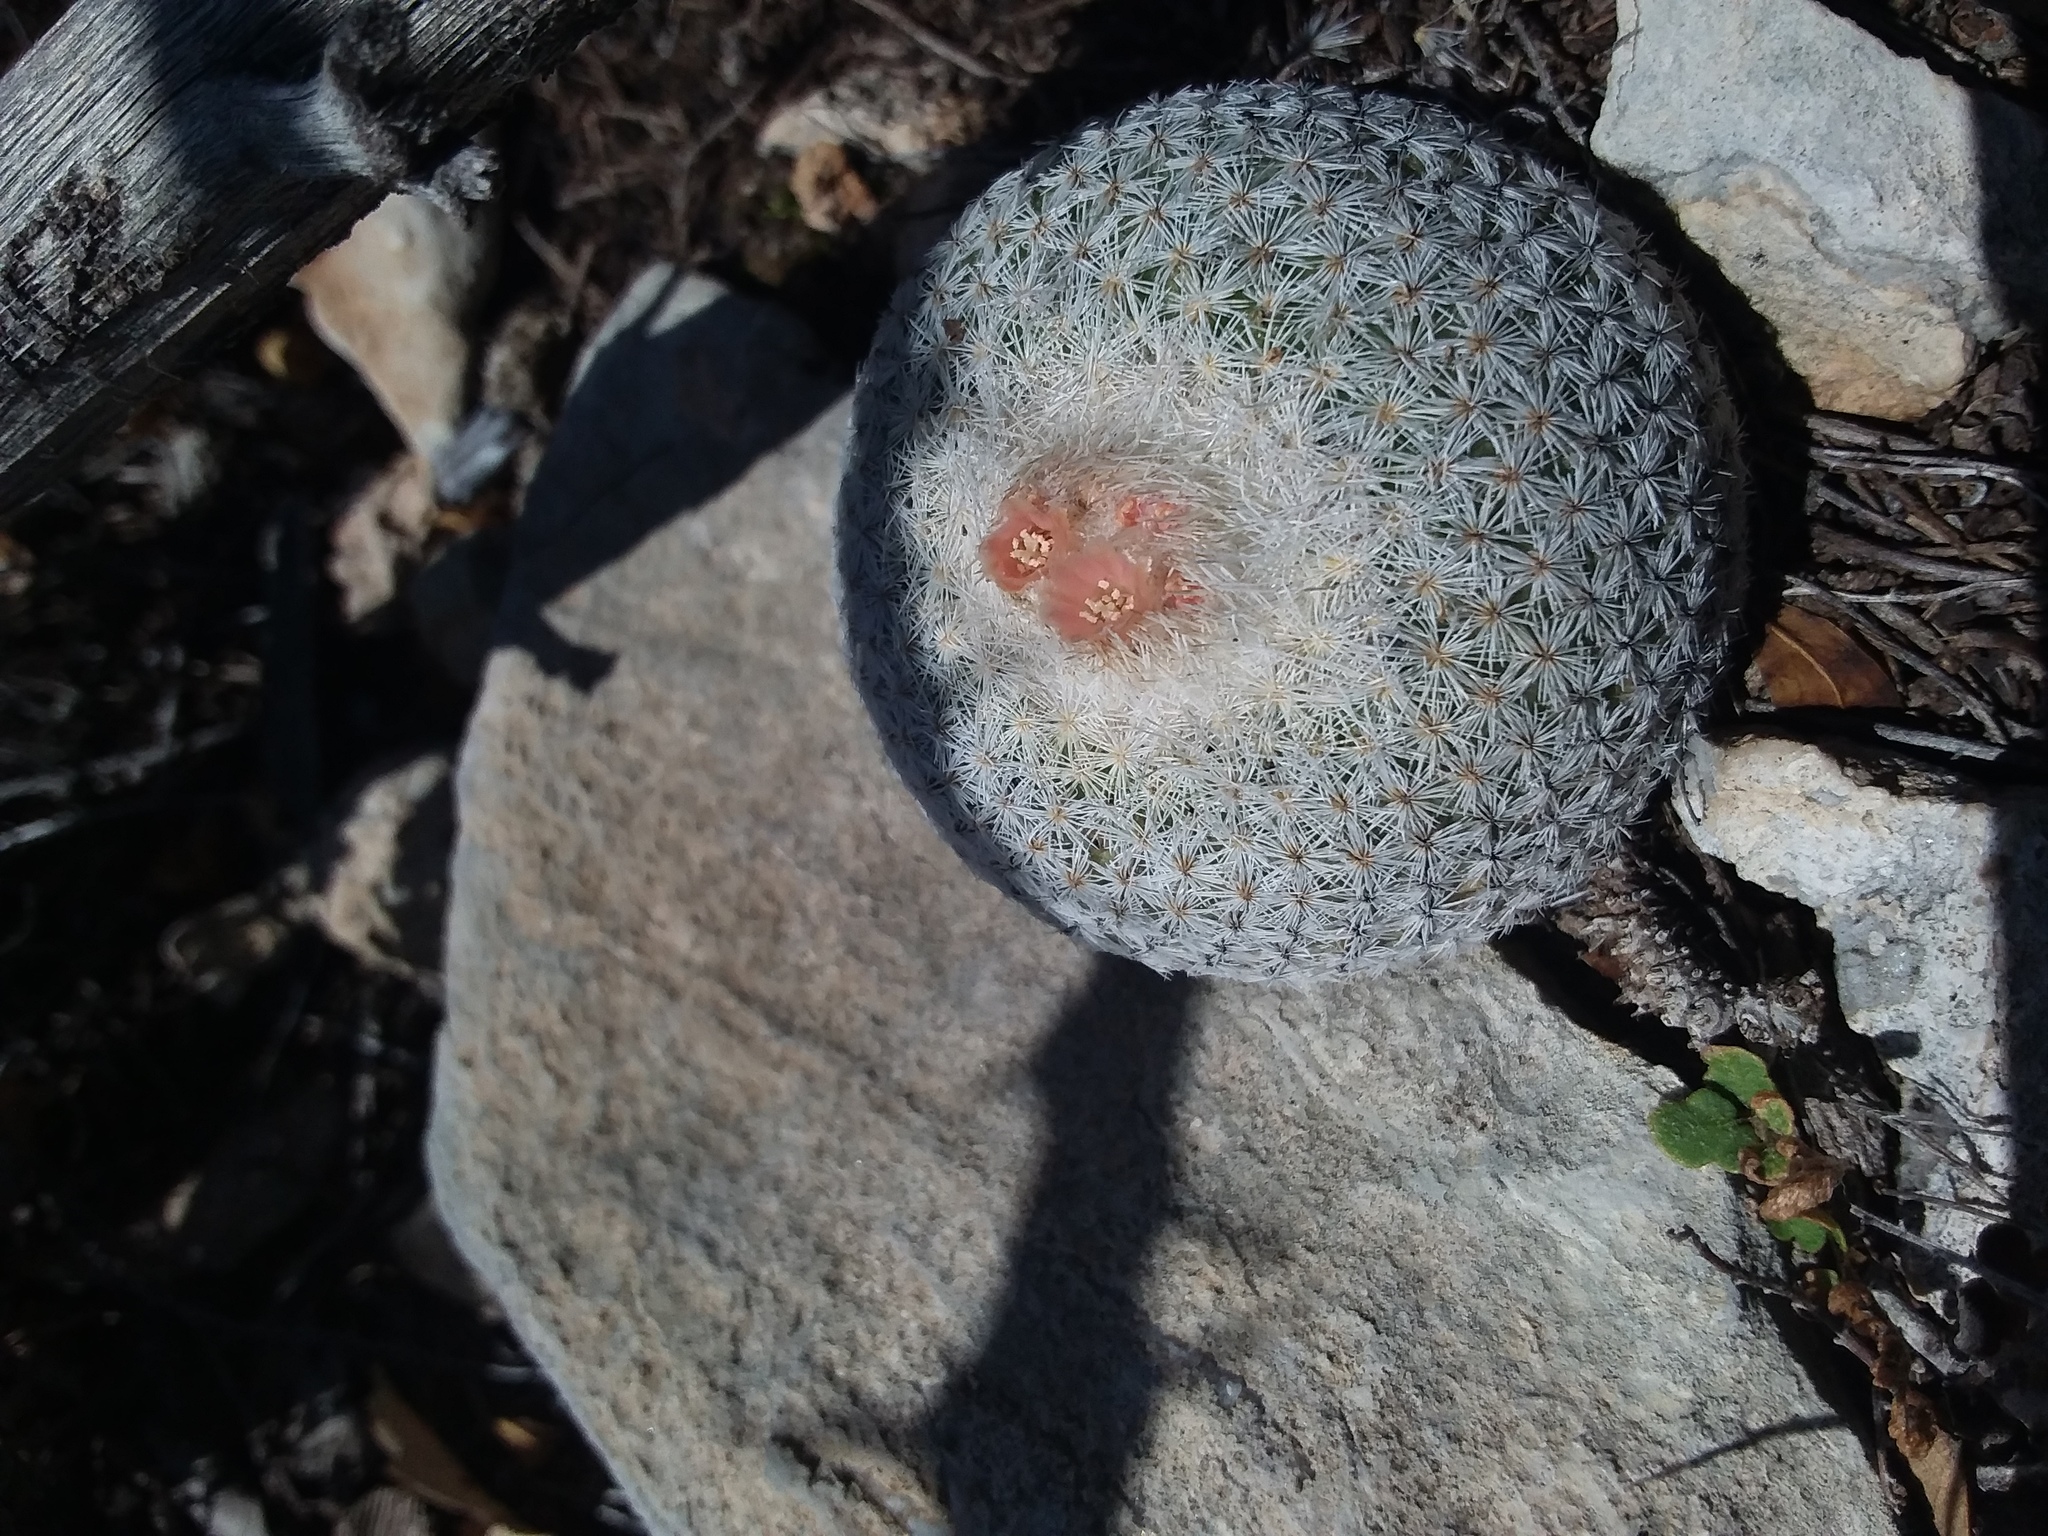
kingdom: Plantae
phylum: Tracheophyta
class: Magnoliopsida
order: Caryophyllales
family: Cactaceae
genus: Epithelantha
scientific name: Epithelantha micromeris
